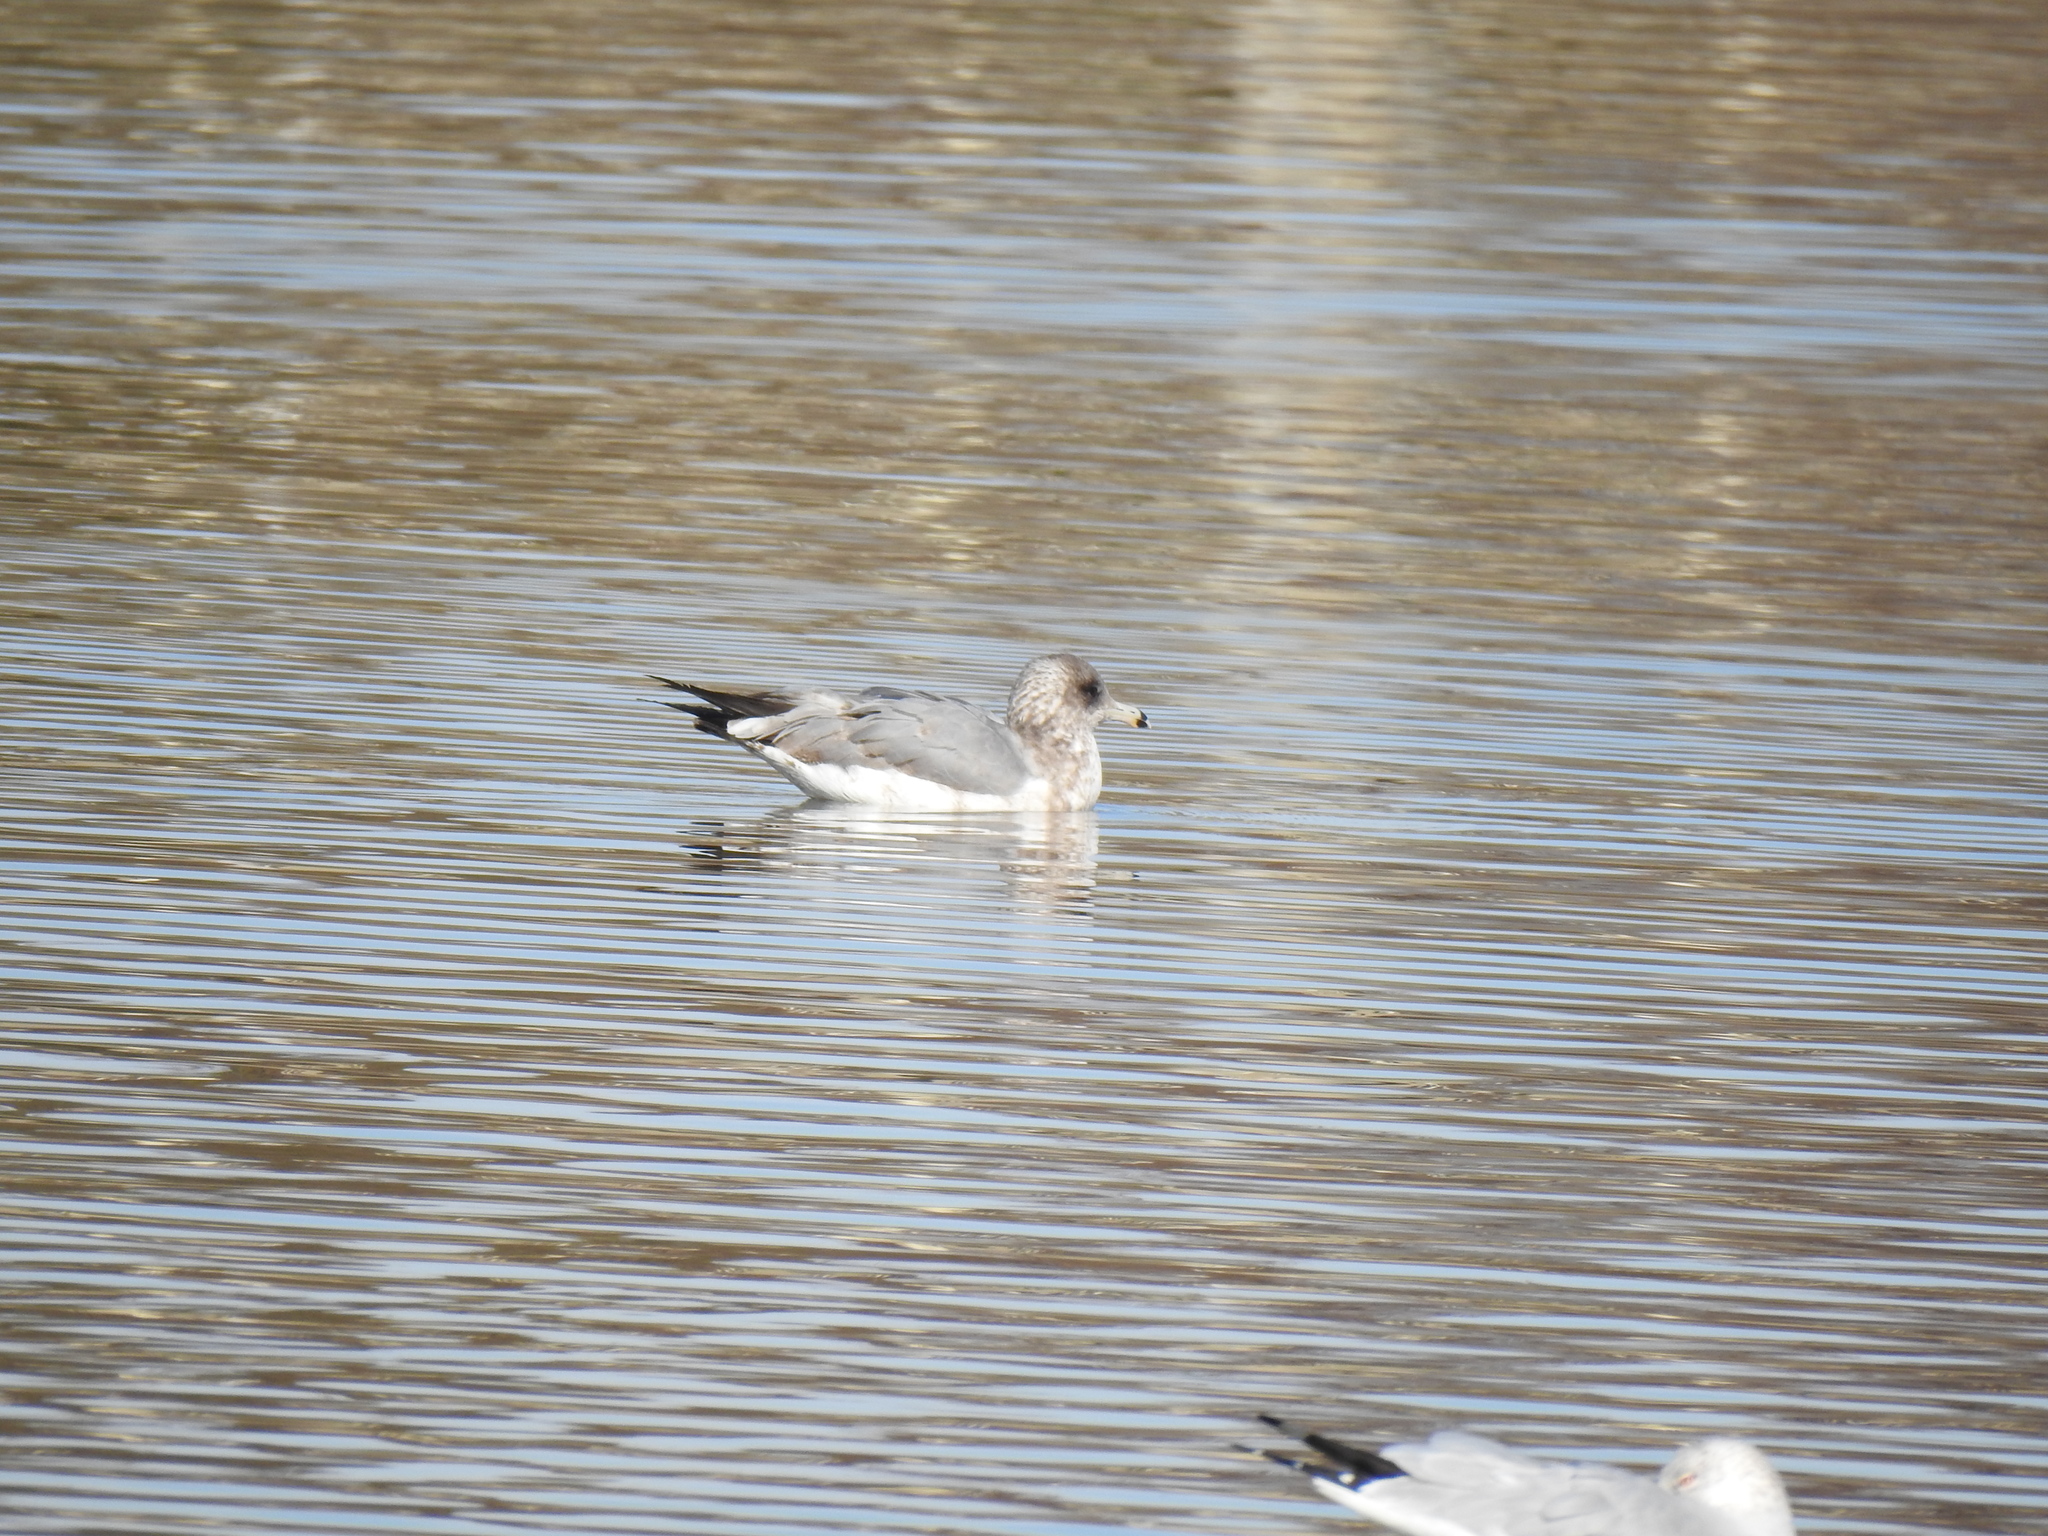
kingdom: Animalia
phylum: Chordata
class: Aves
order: Charadriiformes
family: Laridae
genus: Larus
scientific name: Larus californicus
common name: California gull
